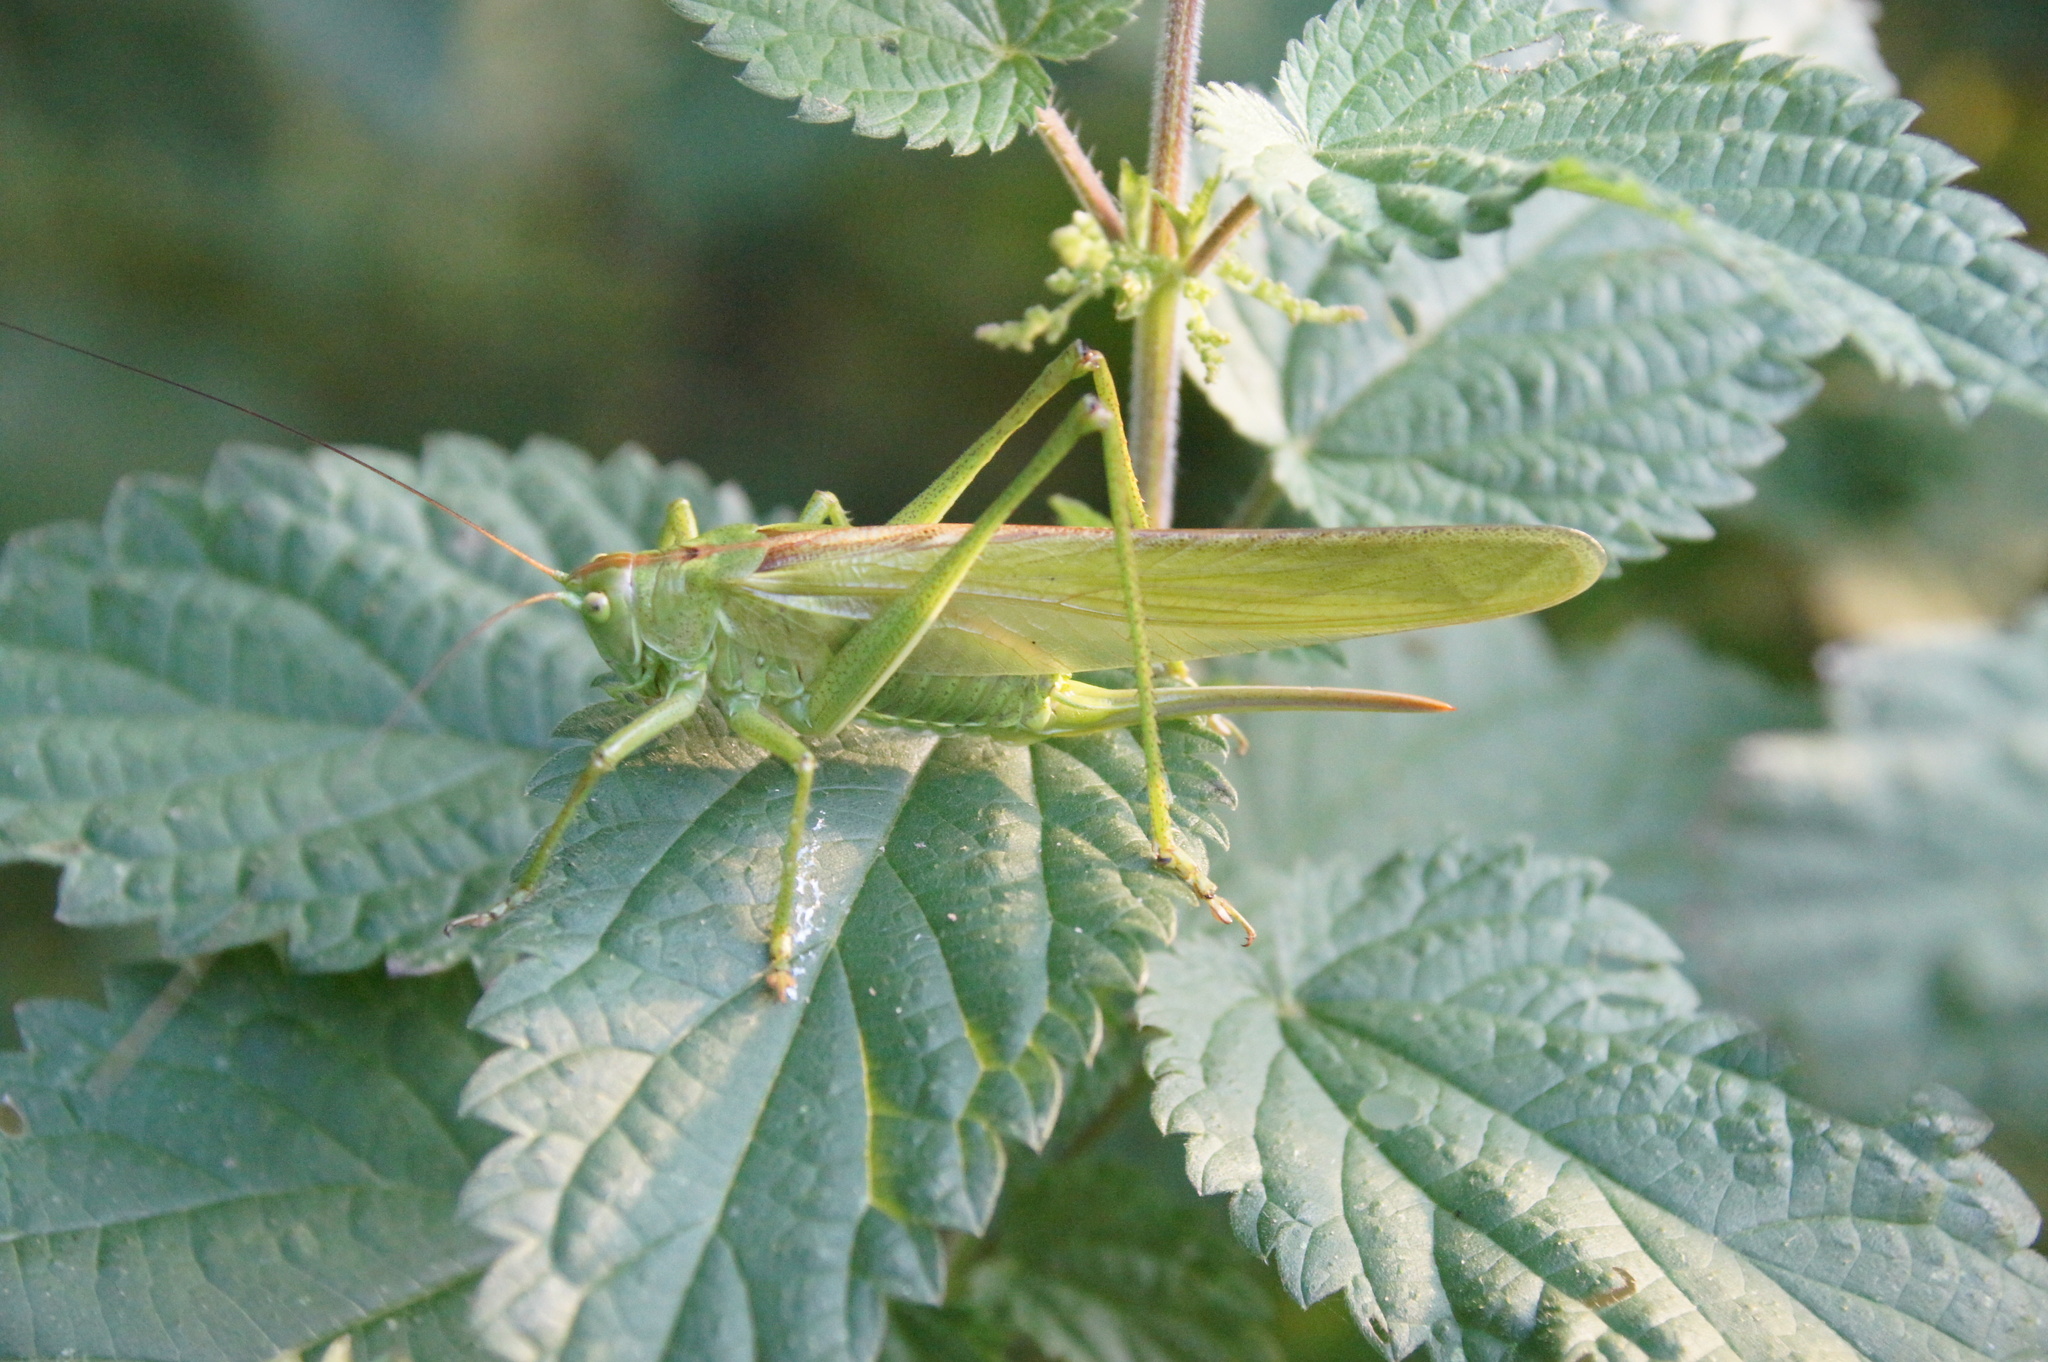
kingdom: Animalia
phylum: Arthropoda
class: Insecta
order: Orthoptera
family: Tettigoniidae
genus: Tettigonia
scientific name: Tettigonia viridissima
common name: Great green bush-cricket
